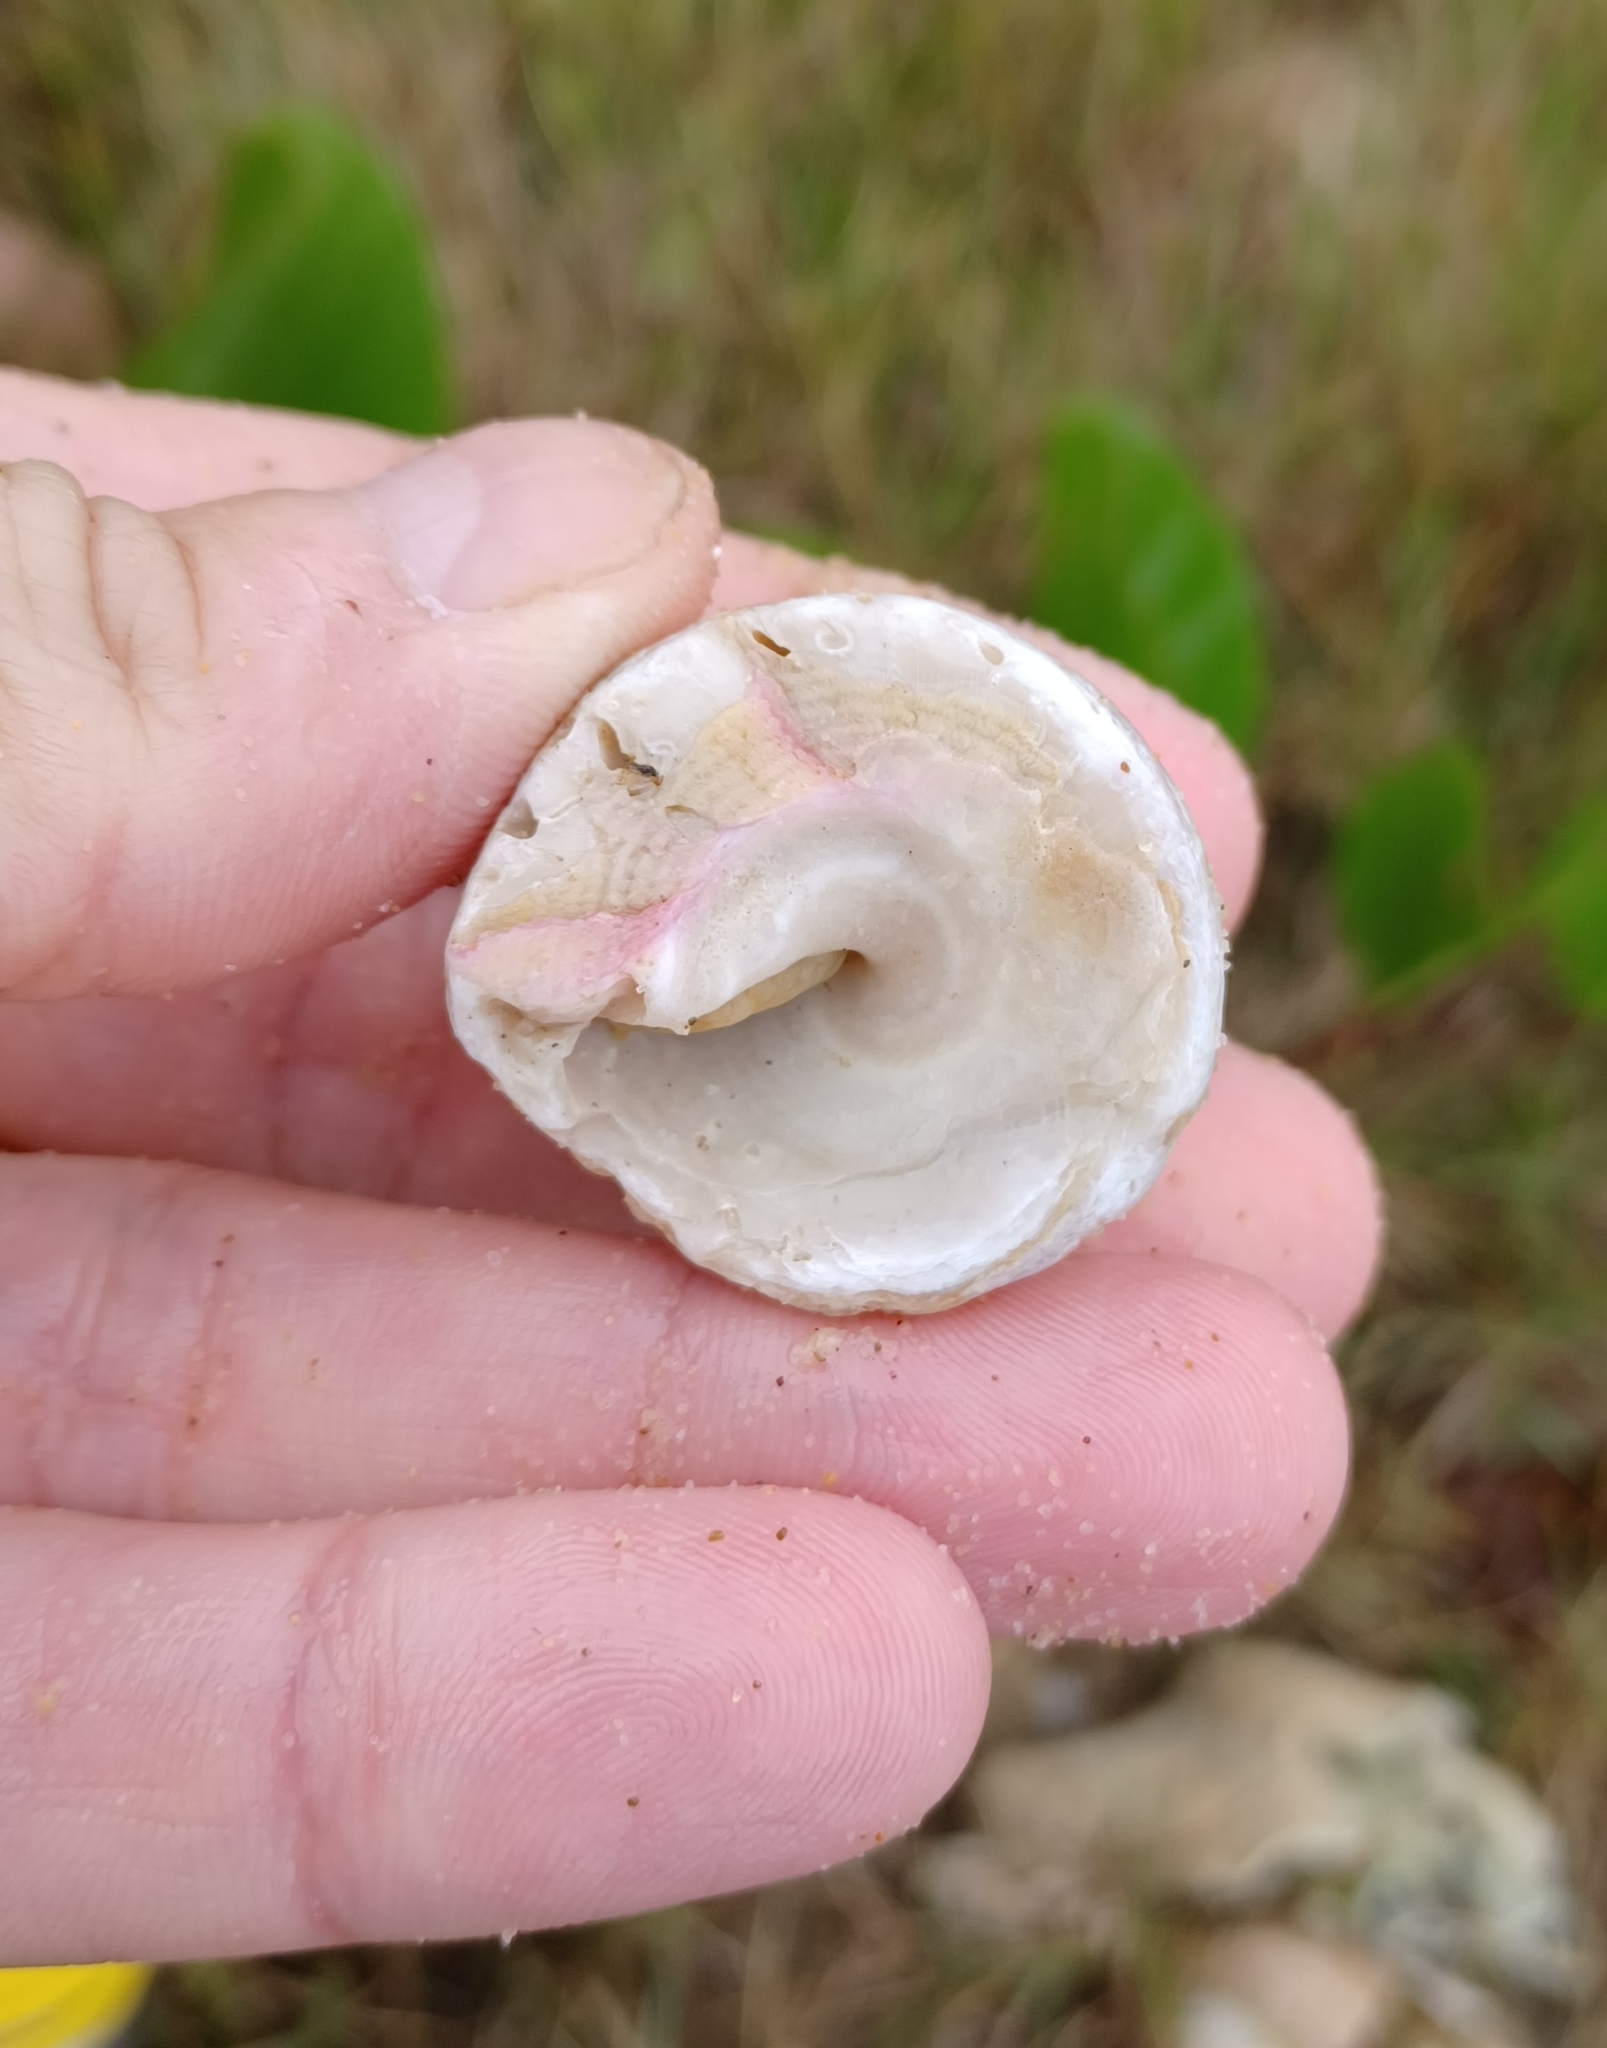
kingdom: Animalia
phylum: Mollusca
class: Gastropoda
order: Trochida
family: Turbinidae
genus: Astralium
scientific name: Astralium tentoriiforme
